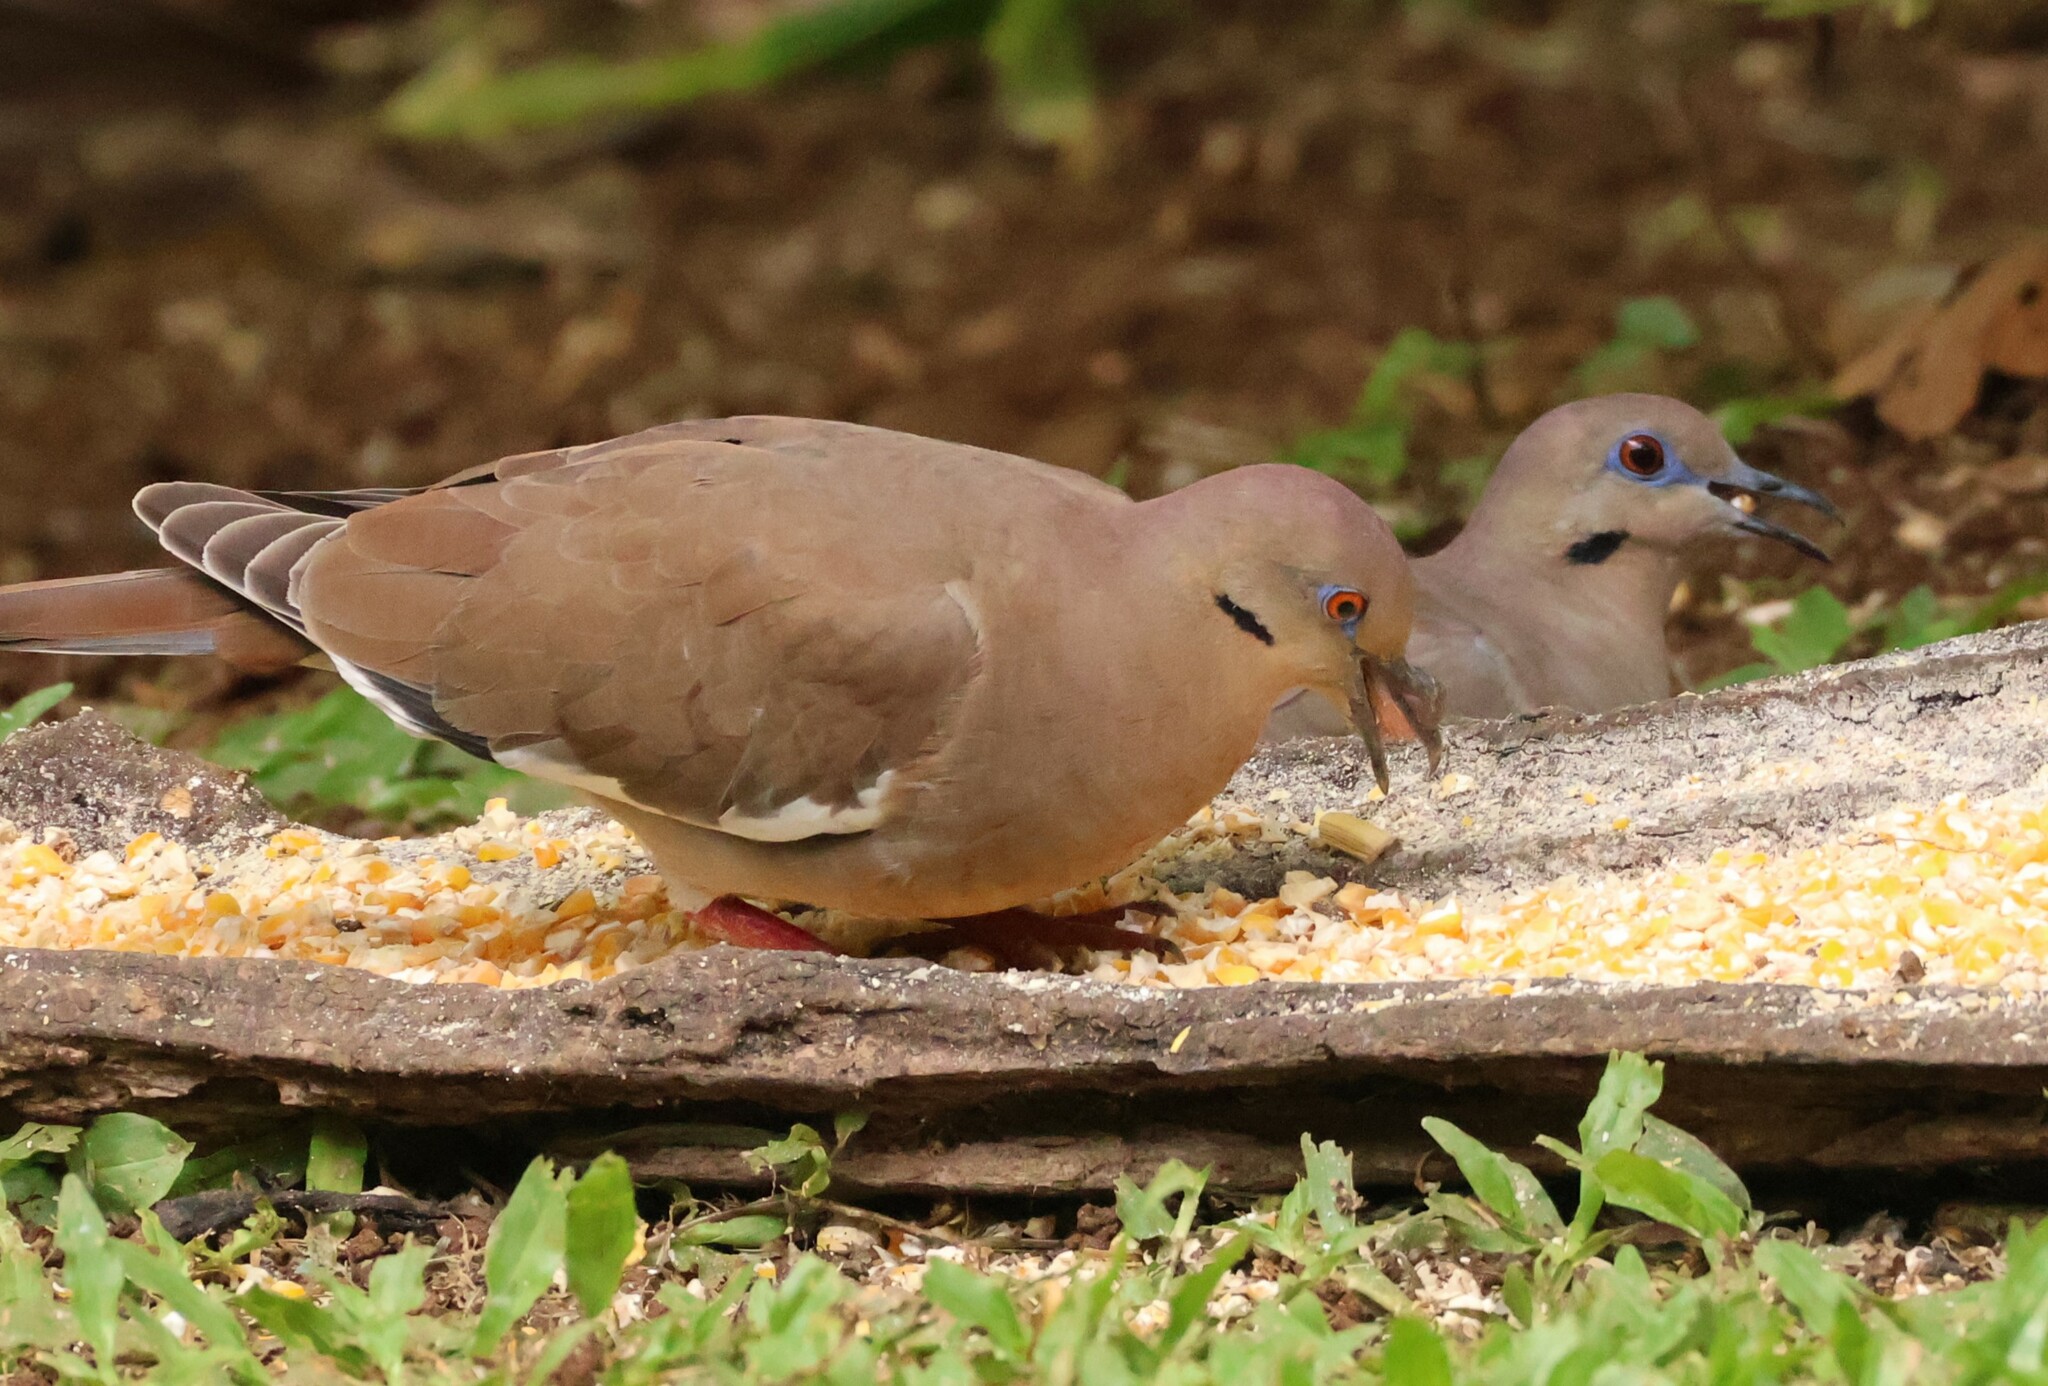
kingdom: Animalia
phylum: Chordata
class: Aves
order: Columbiformes
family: Columbidae
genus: Zenaida
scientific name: Zenaida asiatica
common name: White-winged dove
